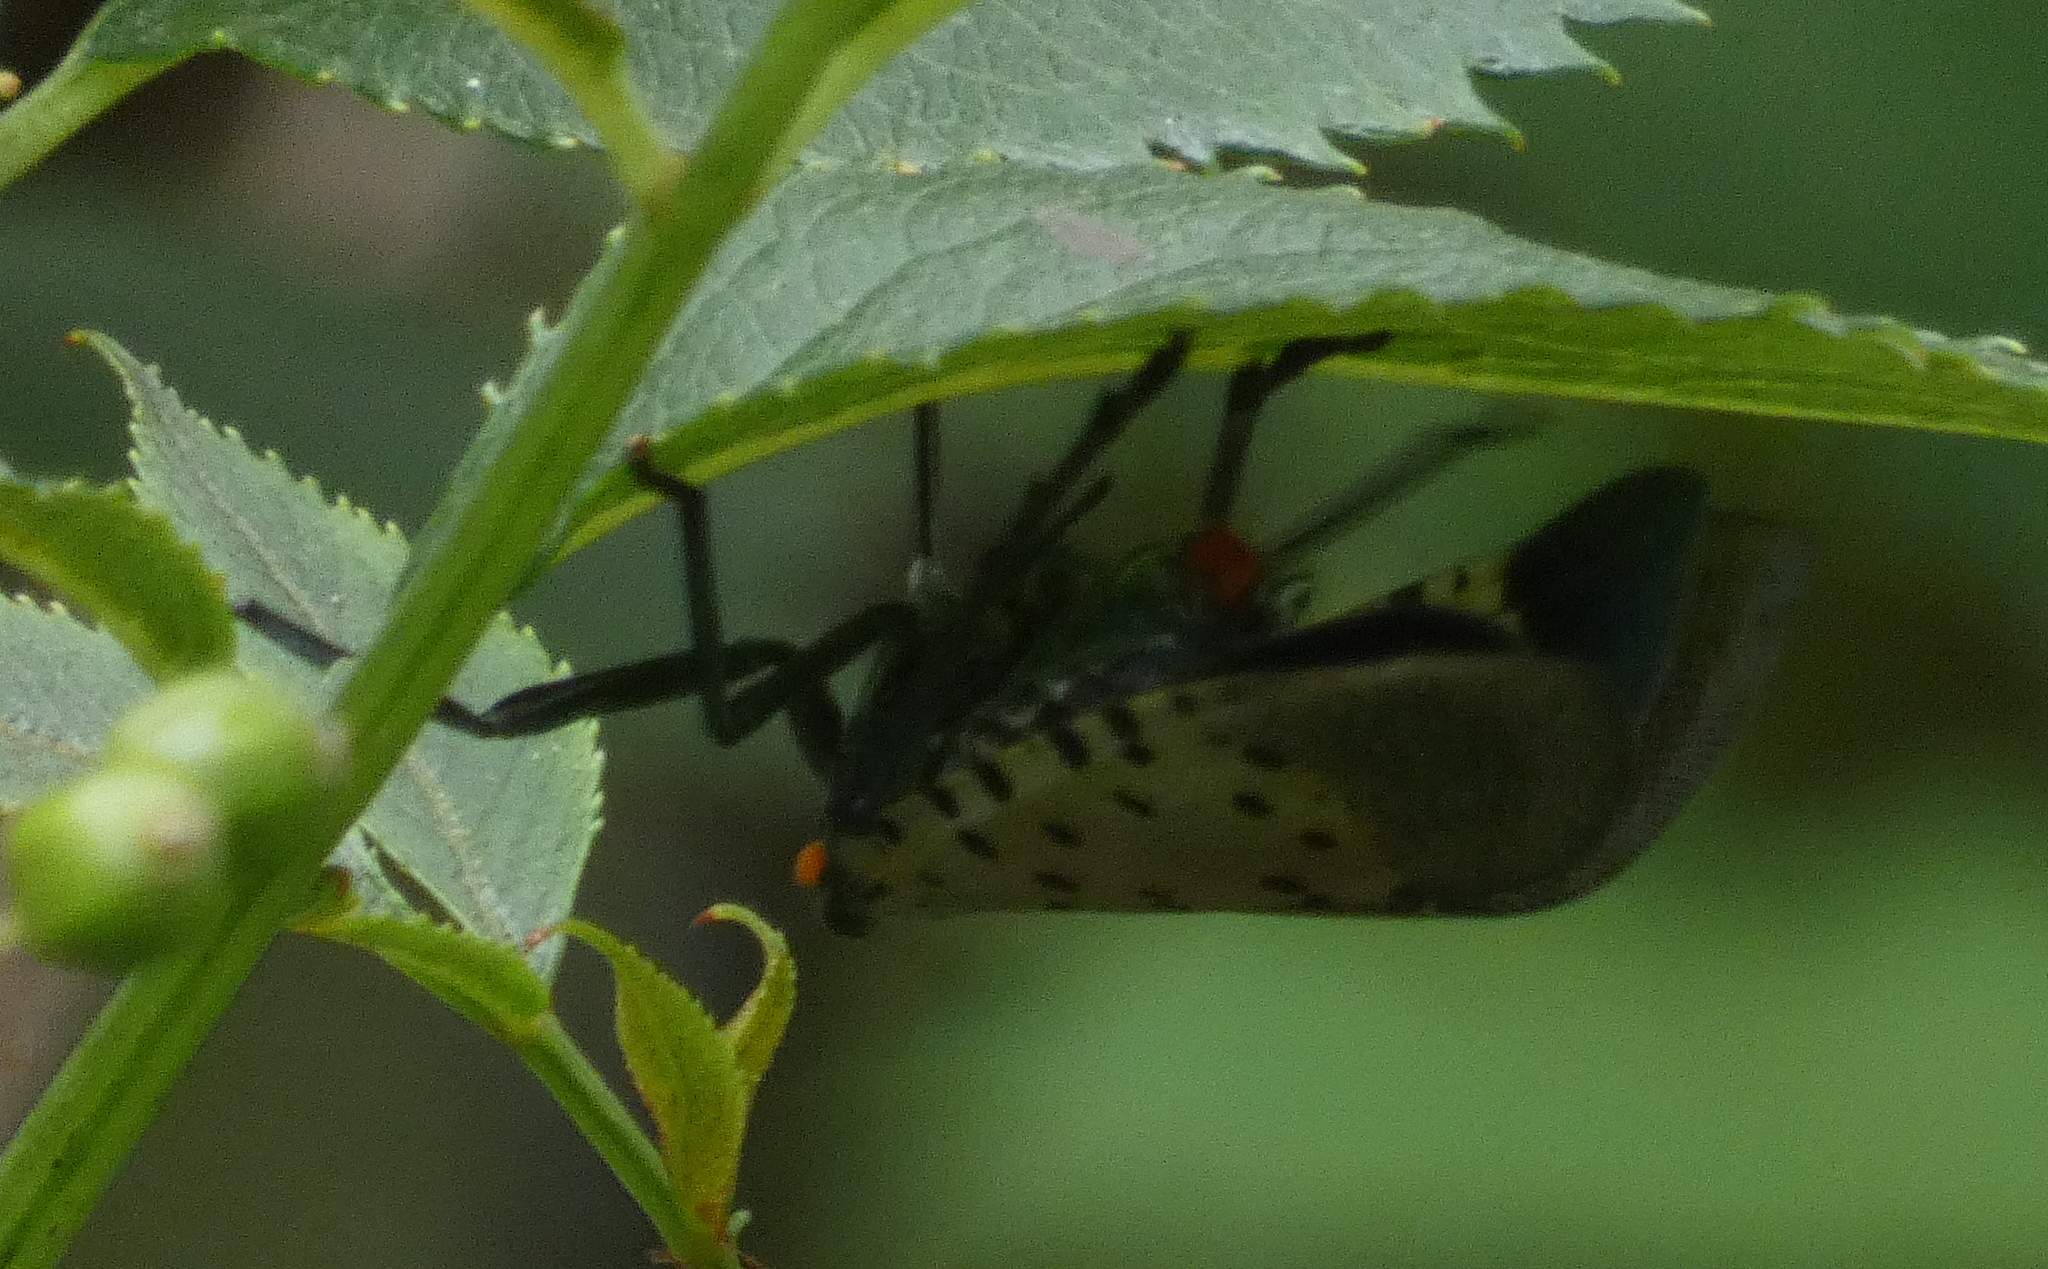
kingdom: Animalia
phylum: Arthropoda
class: Insecta
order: Hemiptera
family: Fulgoridae
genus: Lycorma
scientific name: Lycorma delicatula
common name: Spotted lanternfly
